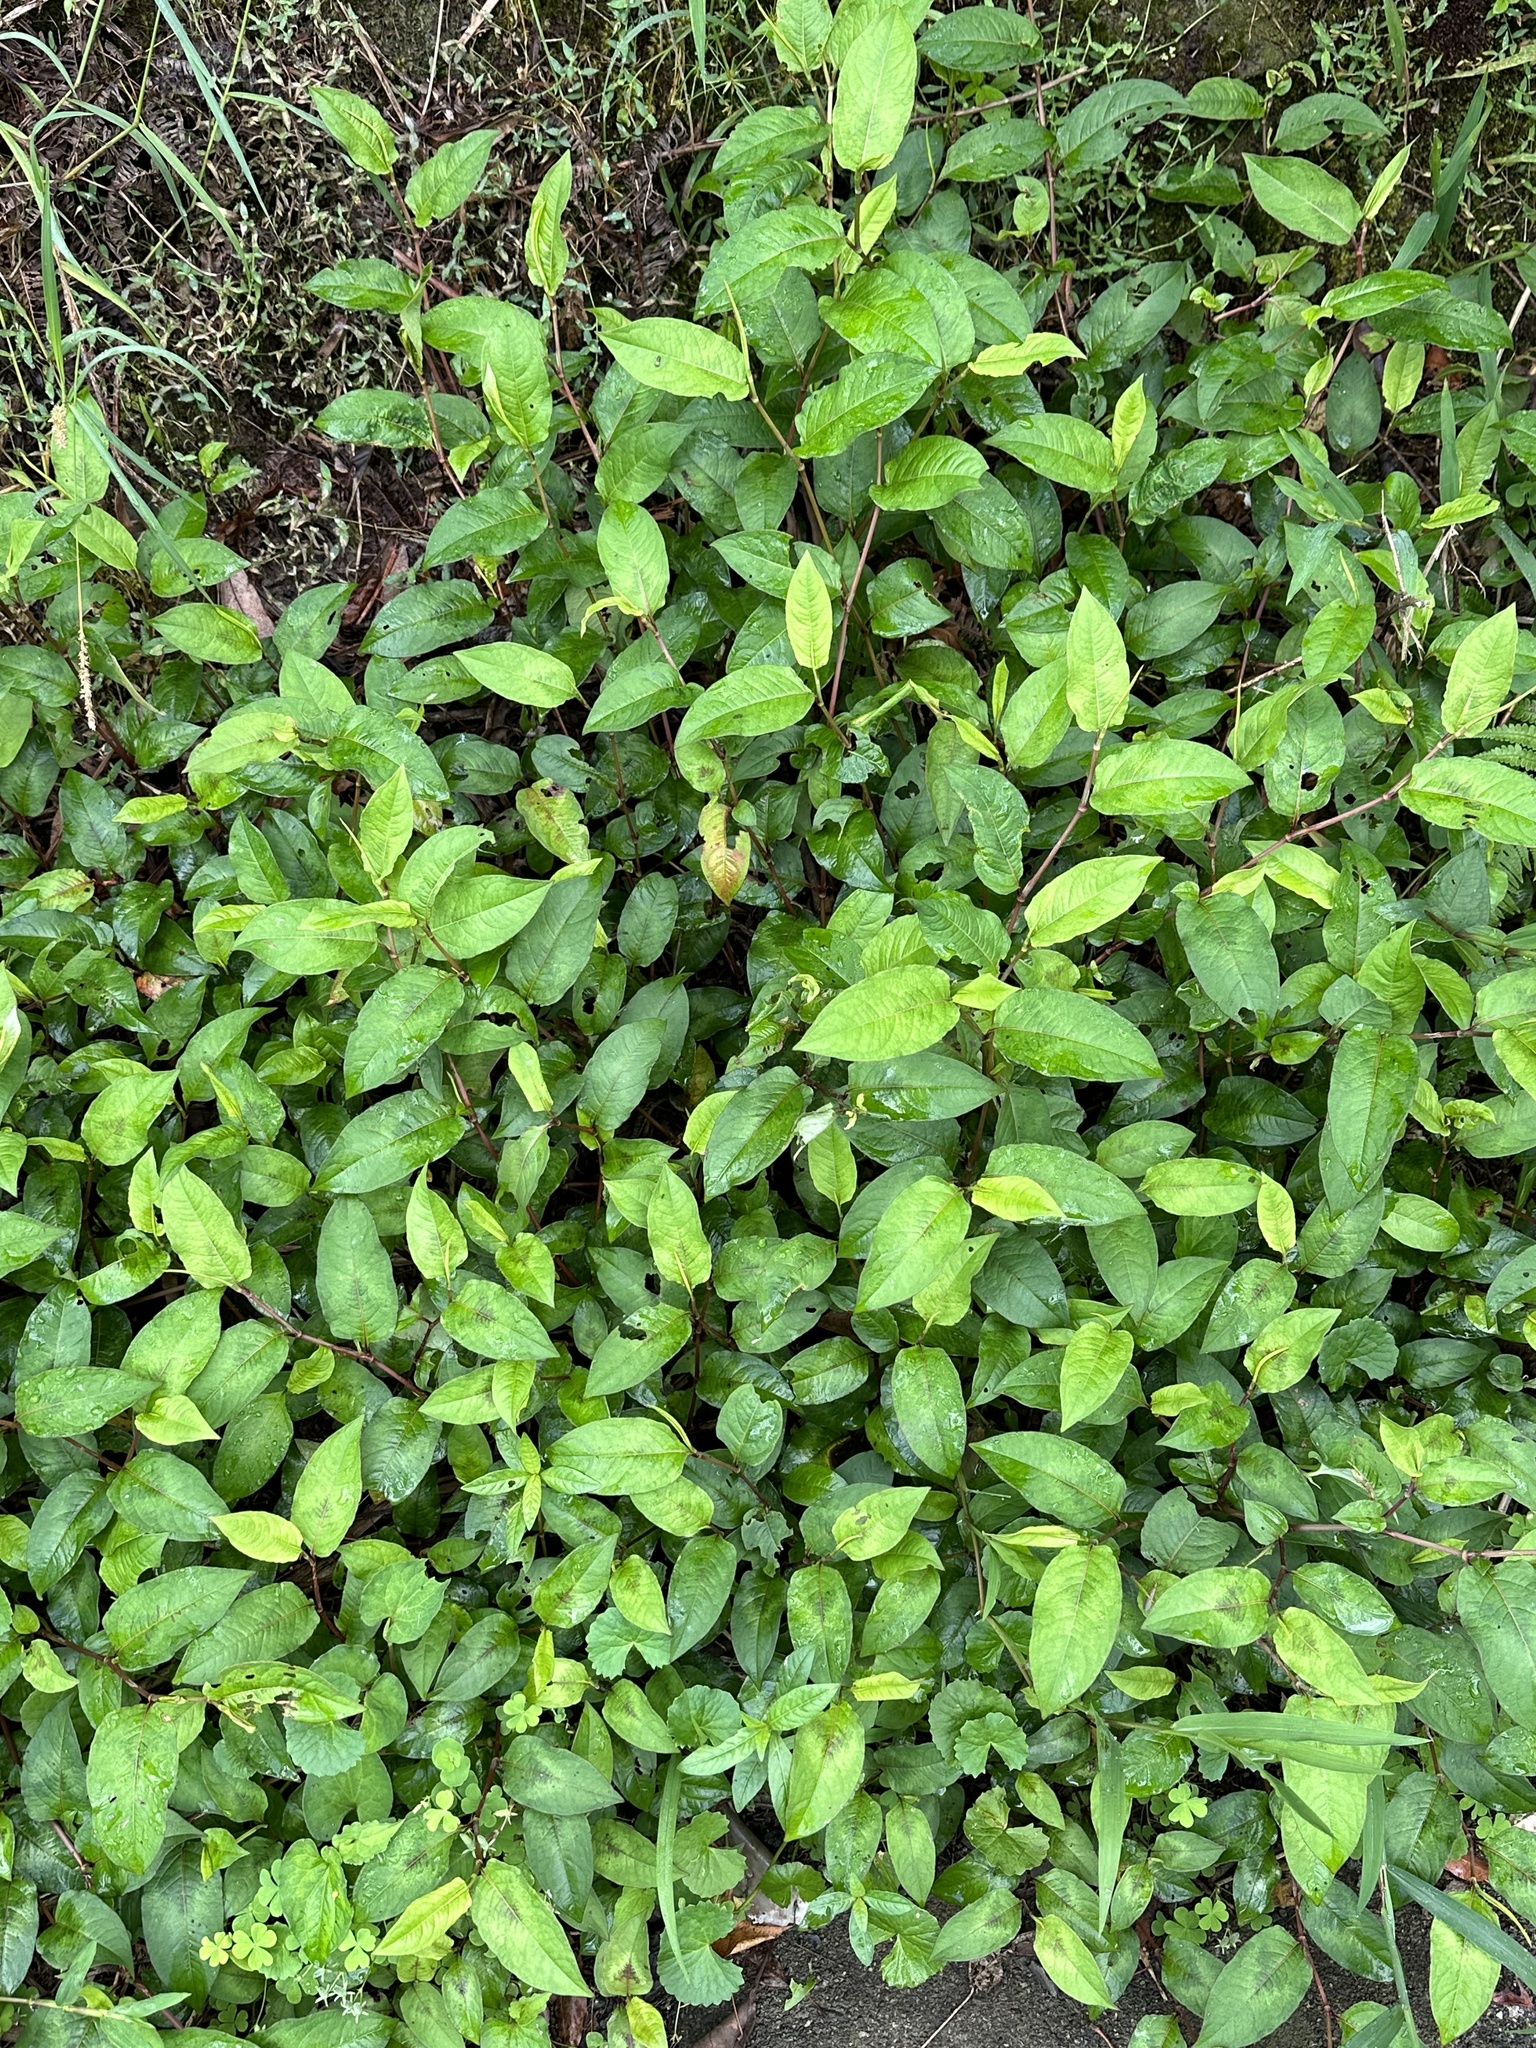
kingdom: Plantae
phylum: Tracheophyta
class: Magnoliopsida
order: Caryophyllales
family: Polygonaceae
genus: Persicaria
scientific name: Persicaria chinensis
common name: Chinese knotweed
